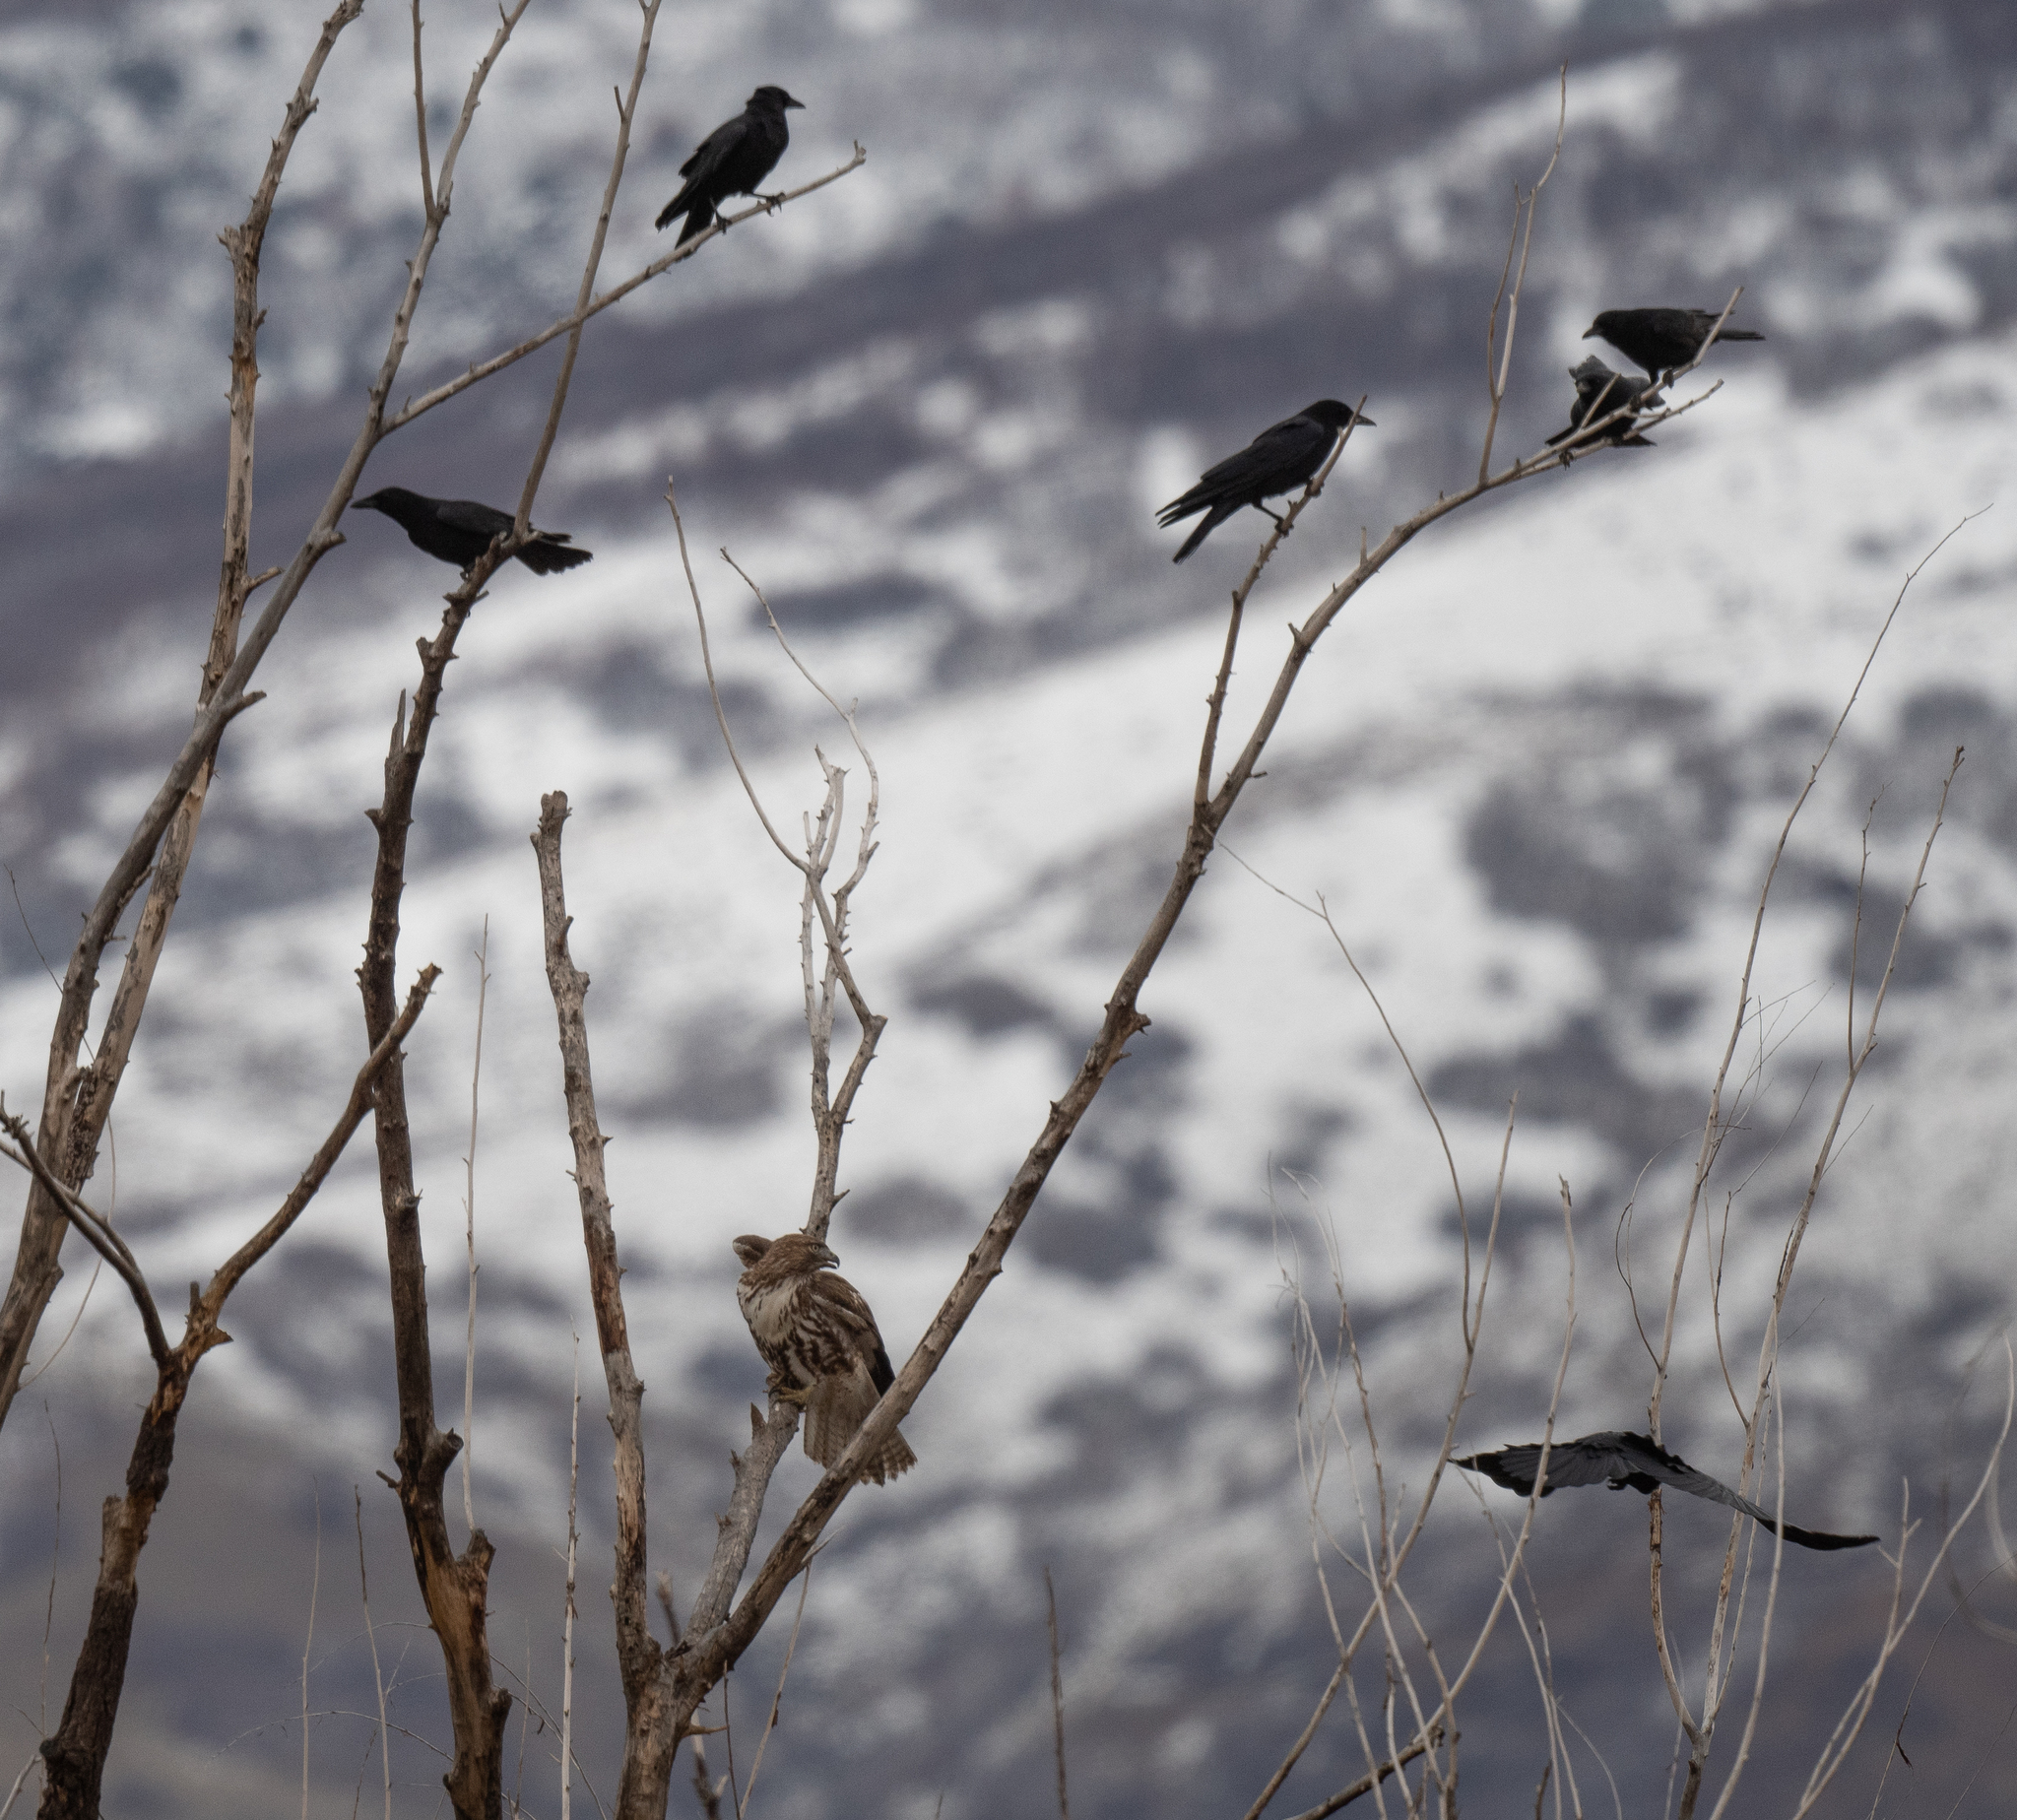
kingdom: Animalia
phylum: Chordata
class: Aves
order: Passeriformes
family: Corvidae
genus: Corvus
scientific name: Corvus brachyrhynchos
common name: American crow
